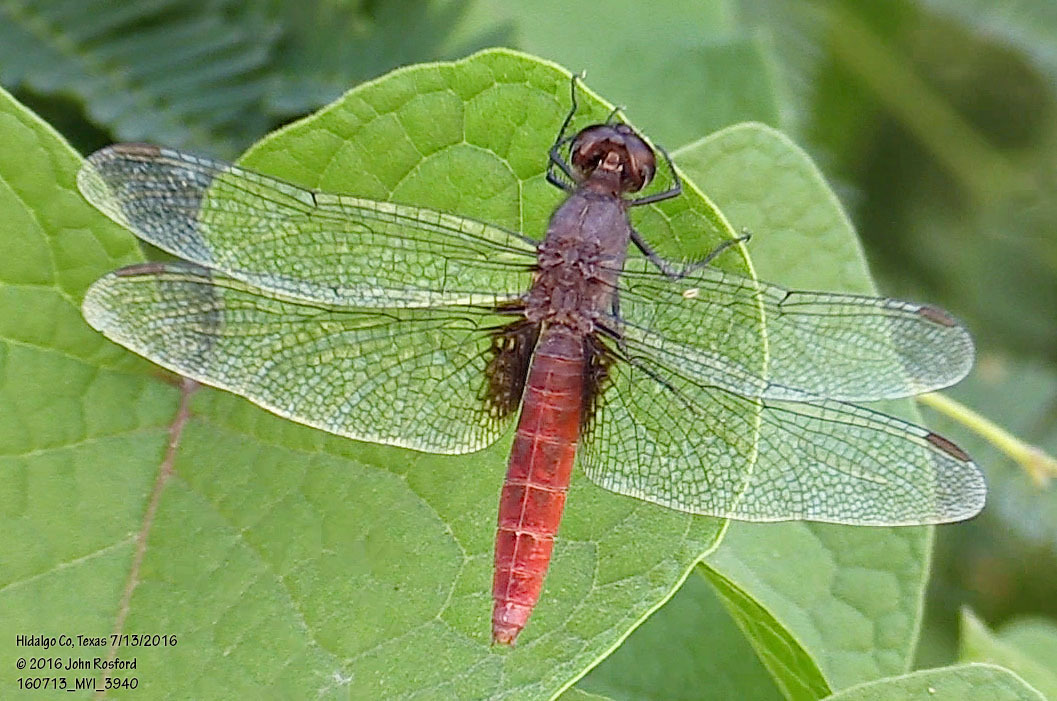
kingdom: Animalia
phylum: Arthropoda
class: Insecta
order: Odonata
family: Libellulidae
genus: Planiplax
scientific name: Planiplax sanguiniventris
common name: Mexican scarlet-tail
